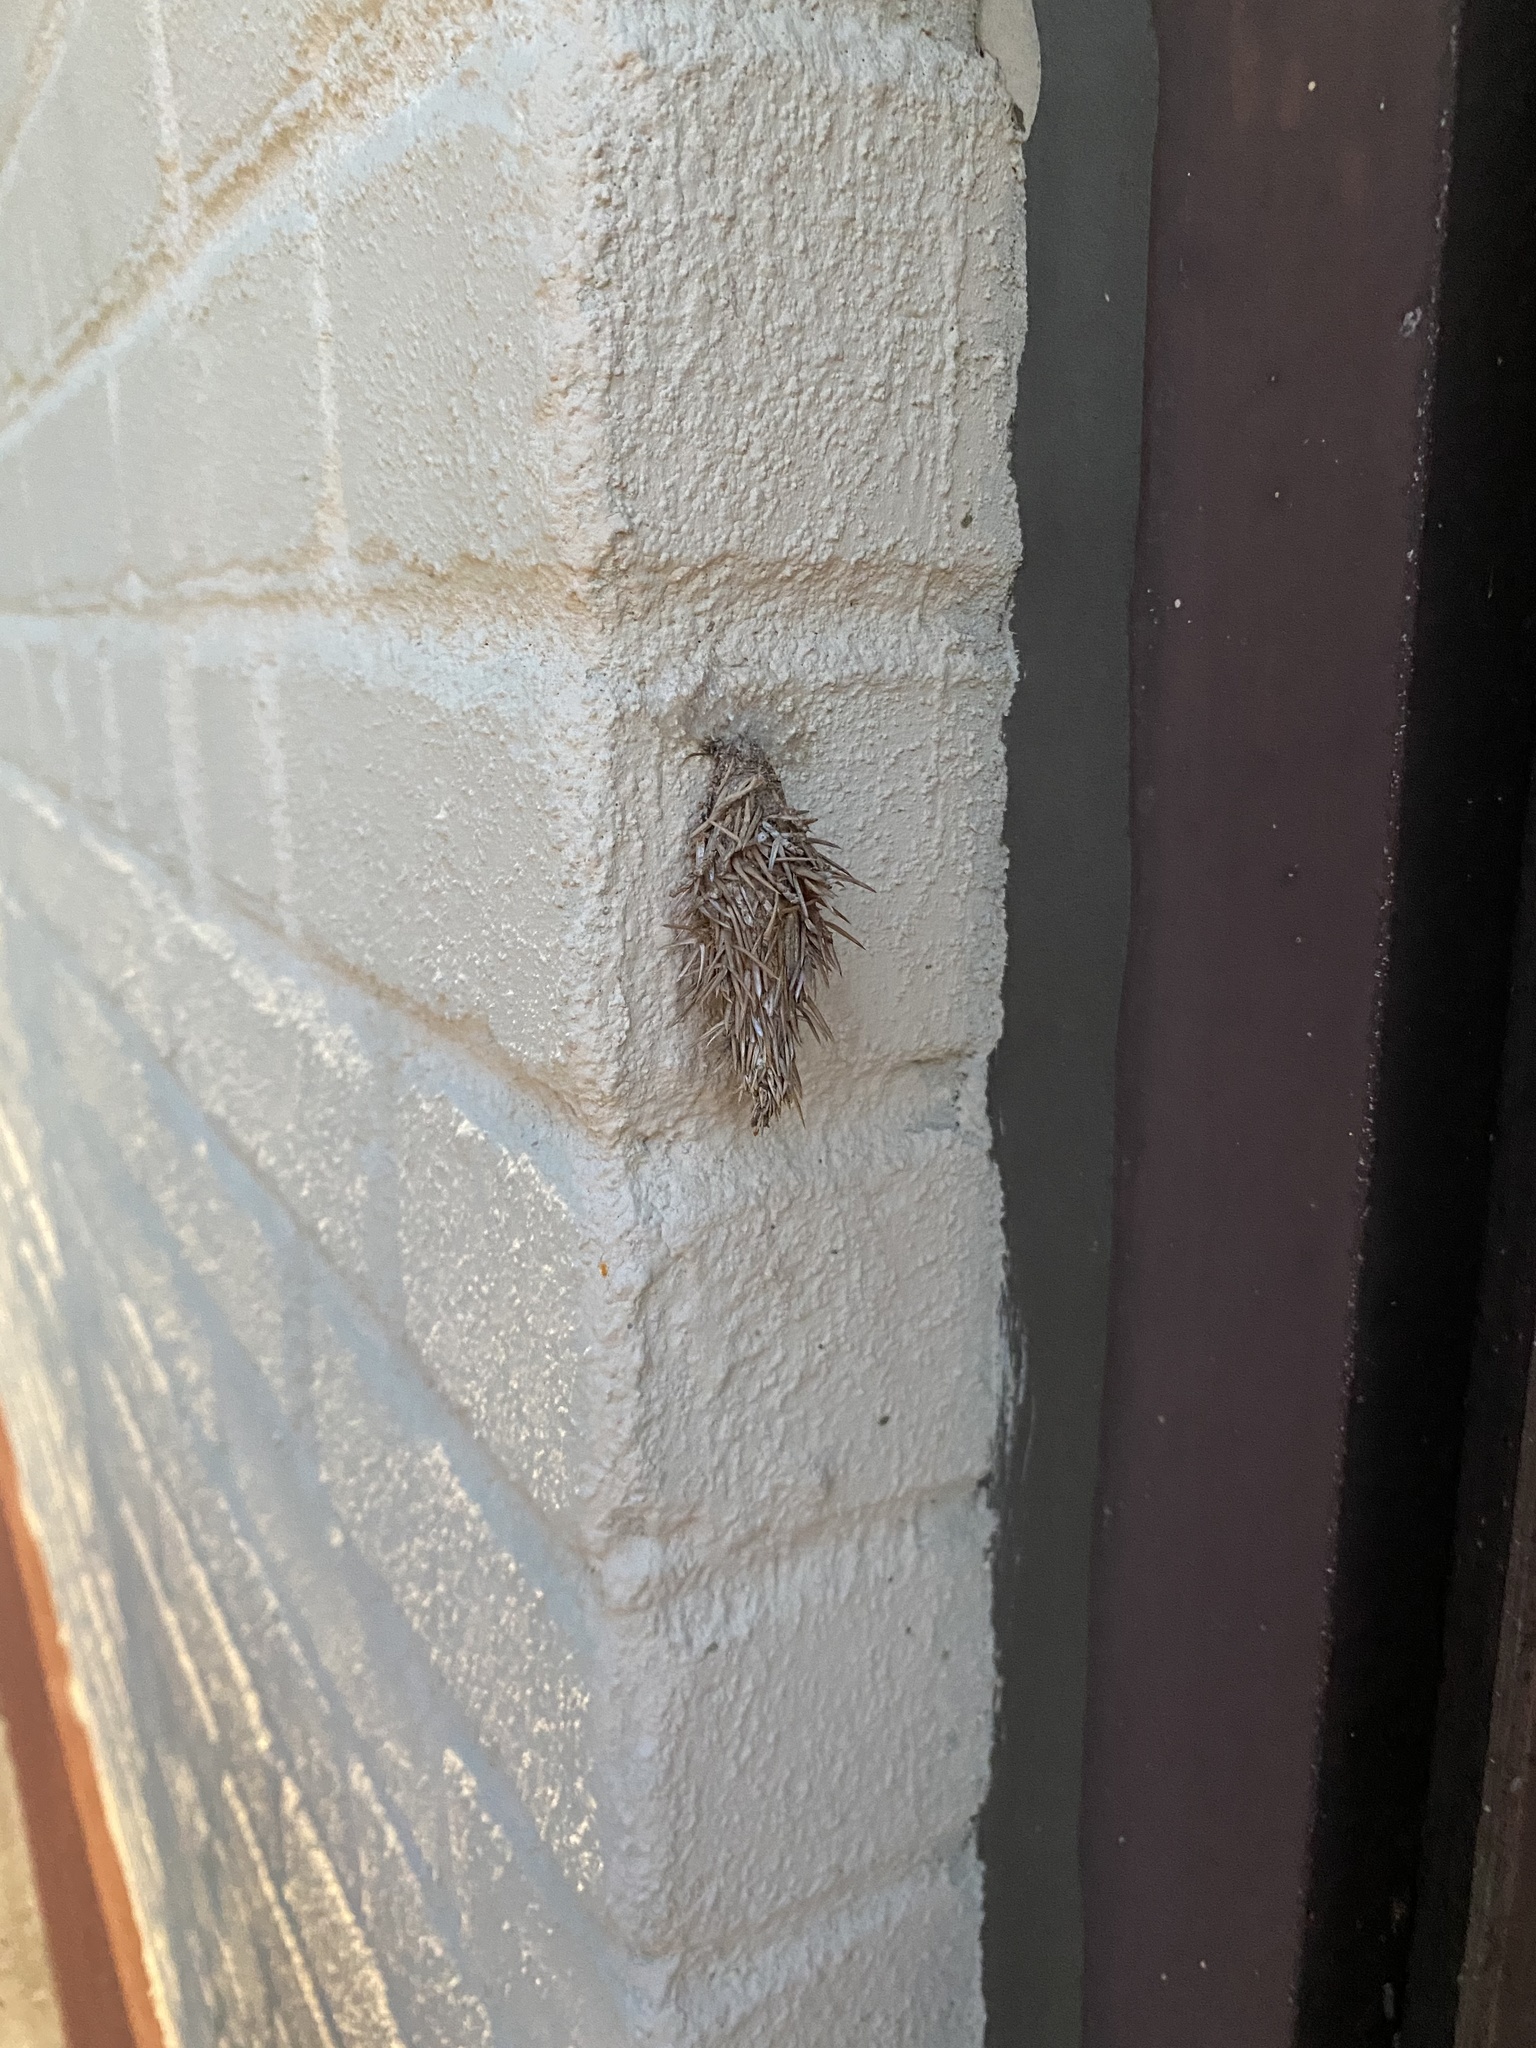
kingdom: Animalia
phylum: Arthropoda
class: Insecta
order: Lepidoptera
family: Psychidae
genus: Thyridopteryx
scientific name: Thyridopteryx ephemeraeformis
